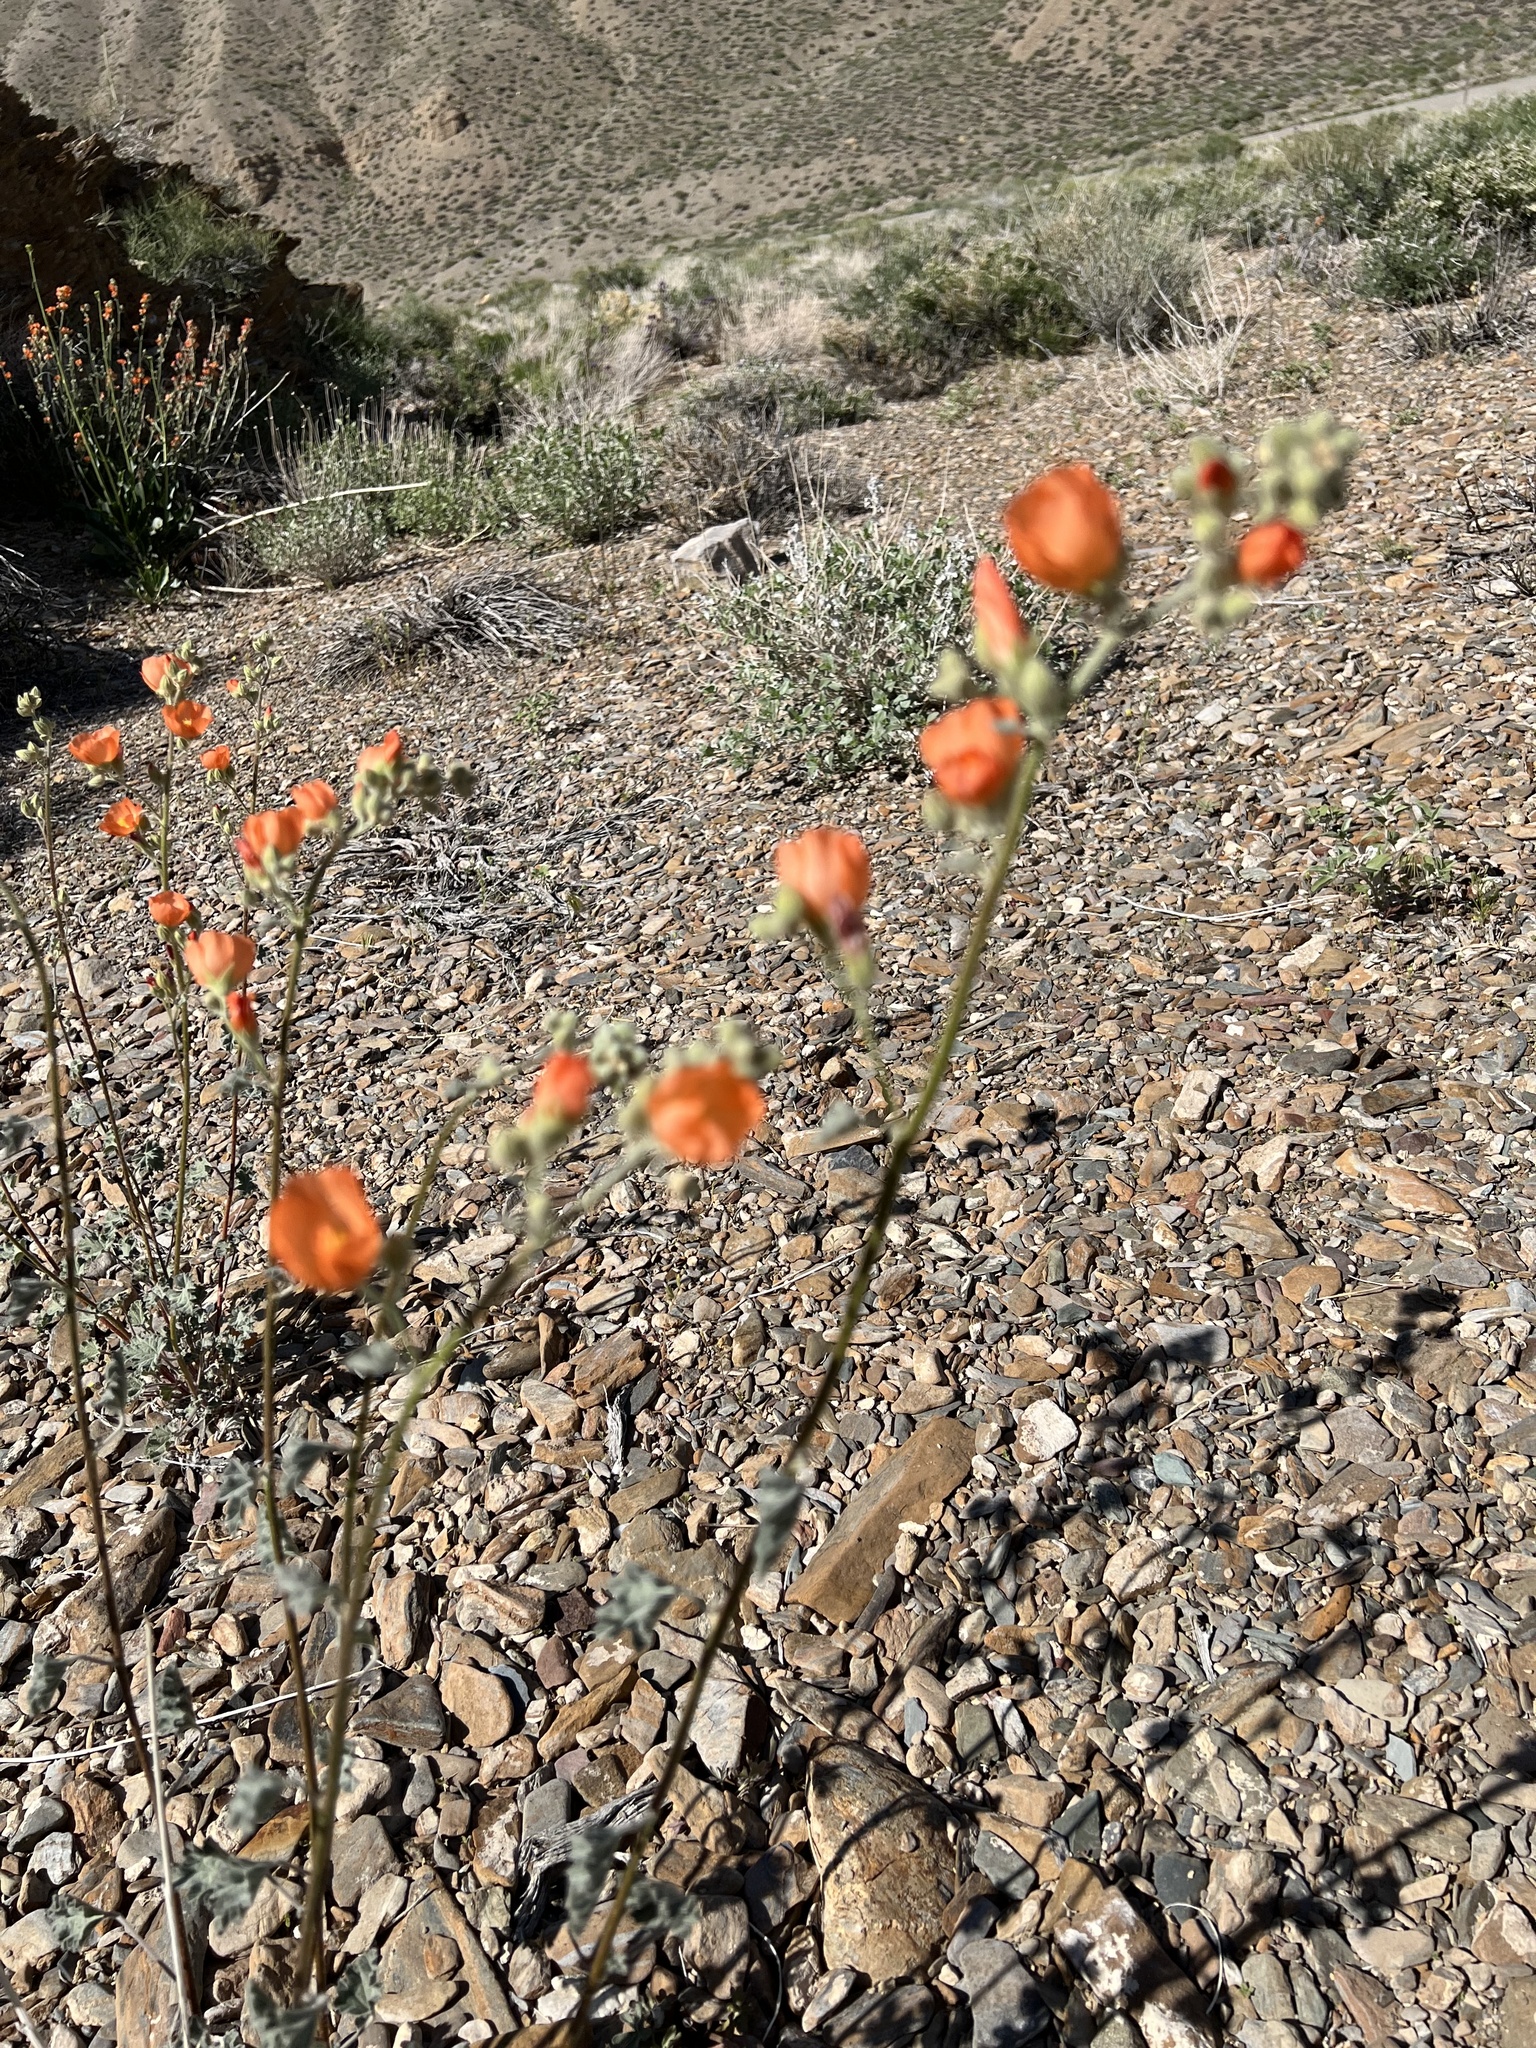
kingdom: Plantae
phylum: Tracheophyta
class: Magnoliopsida
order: Malvales
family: Malvaceae
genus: Sphaeralcea
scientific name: Sphaeralcea ambigua
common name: Apricot globe-mallow
